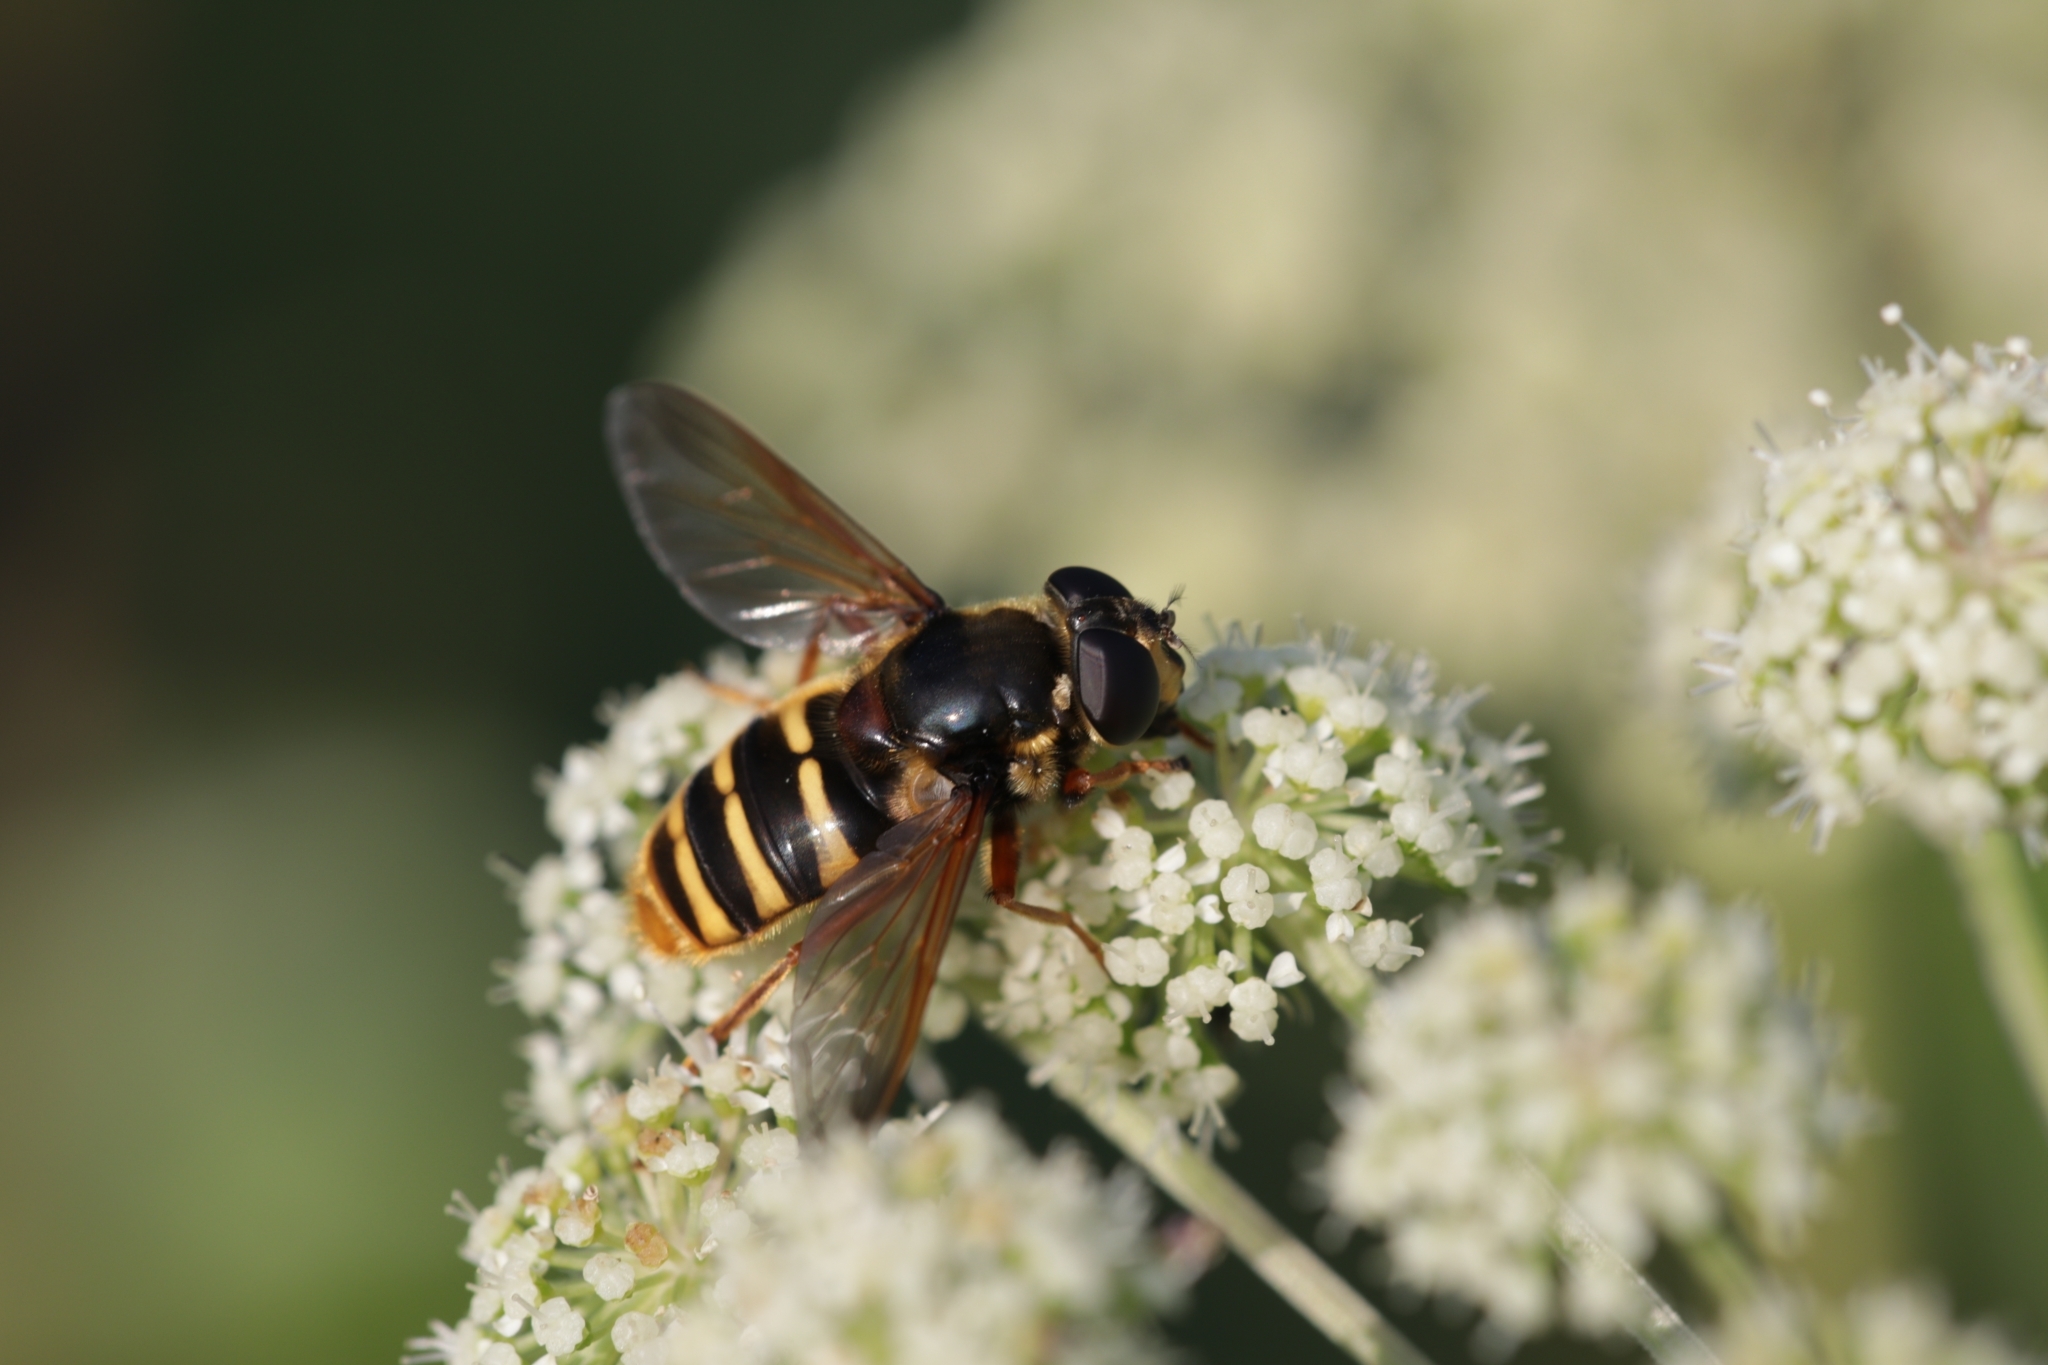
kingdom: Animalia
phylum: Arthropoda
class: Insecta
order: Diptera
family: Syrphidae
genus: Sericomyia
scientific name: Sericomyia silentis
